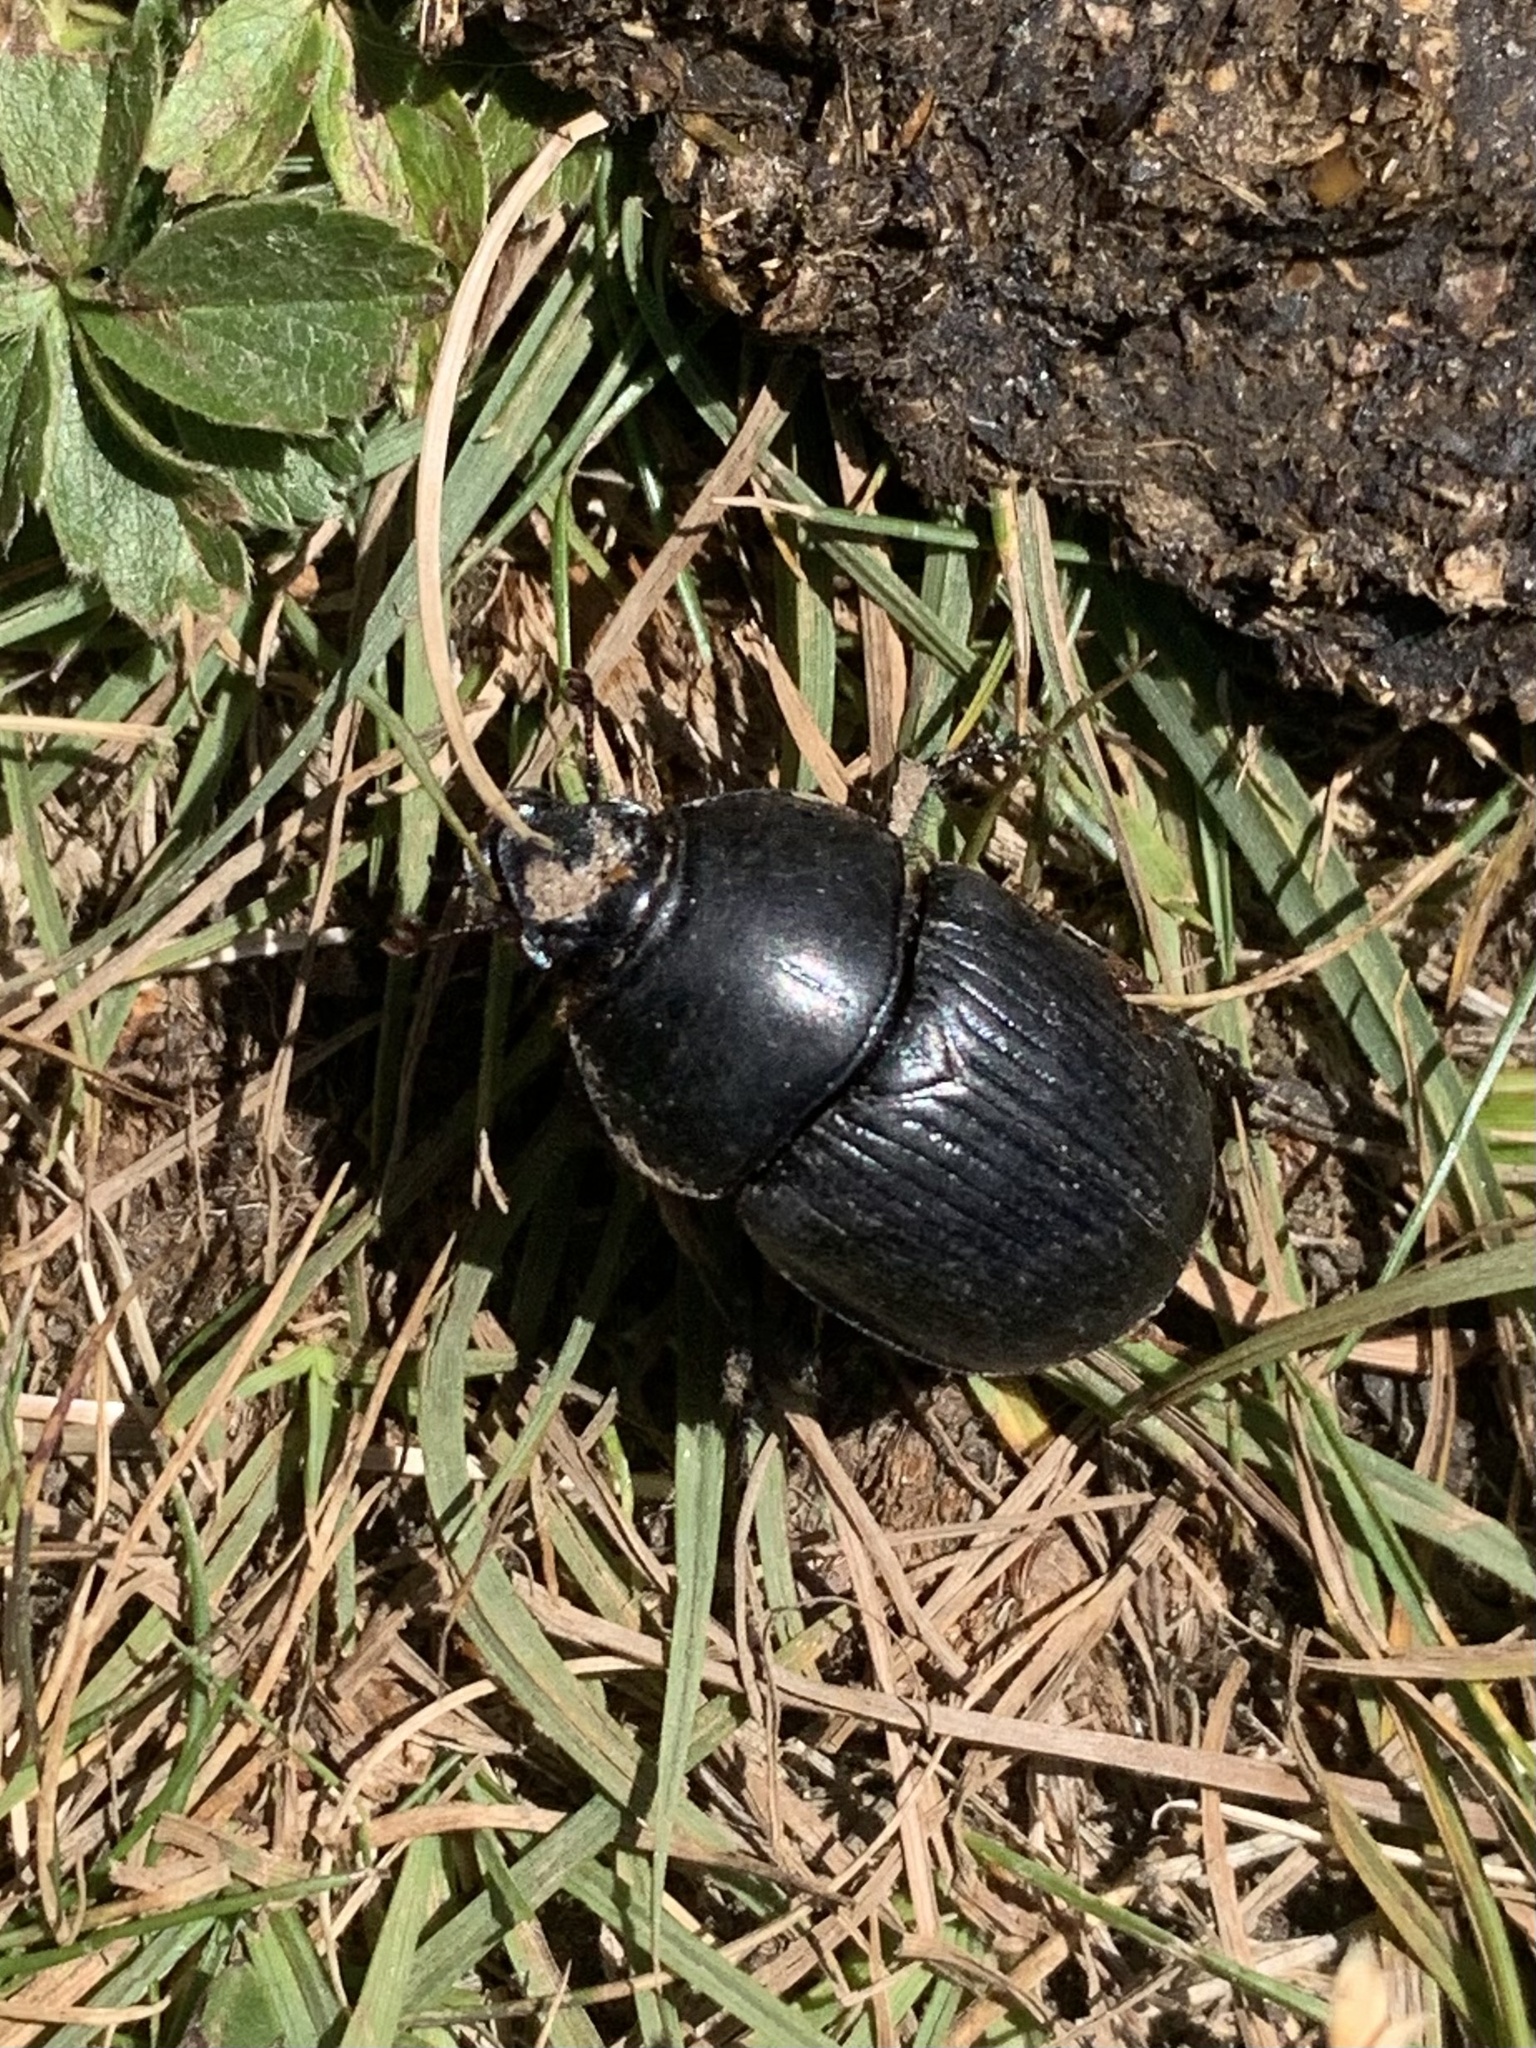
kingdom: Animalia
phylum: Arthropoda
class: Insecta
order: Coleoptera
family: Geotrupidae
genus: Geotrupes
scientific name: Geotrupes stercorarius
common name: Earth-boring dung beetle
